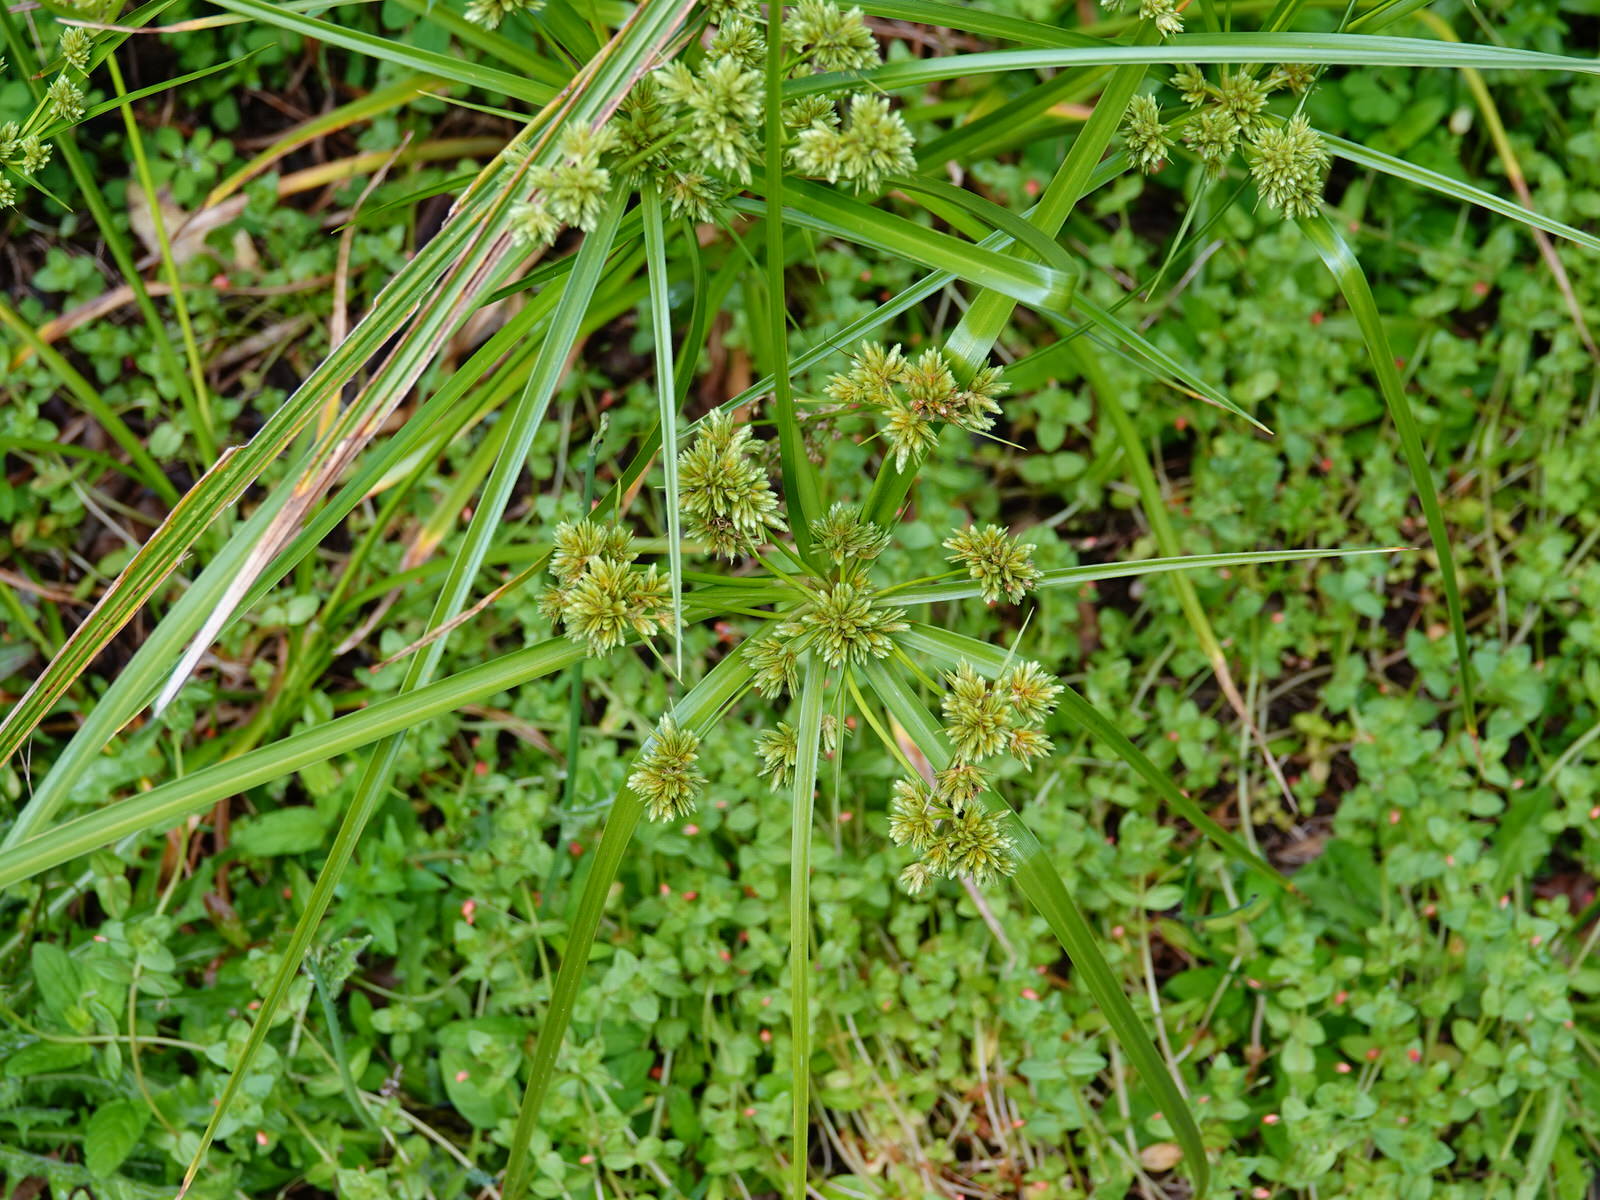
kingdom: Plantae
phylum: Tracheophyta
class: Liliopsida
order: Poales
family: Cyperaceae
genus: Cyperus
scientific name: Cyperus eragrostis
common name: Tall flatsedge
